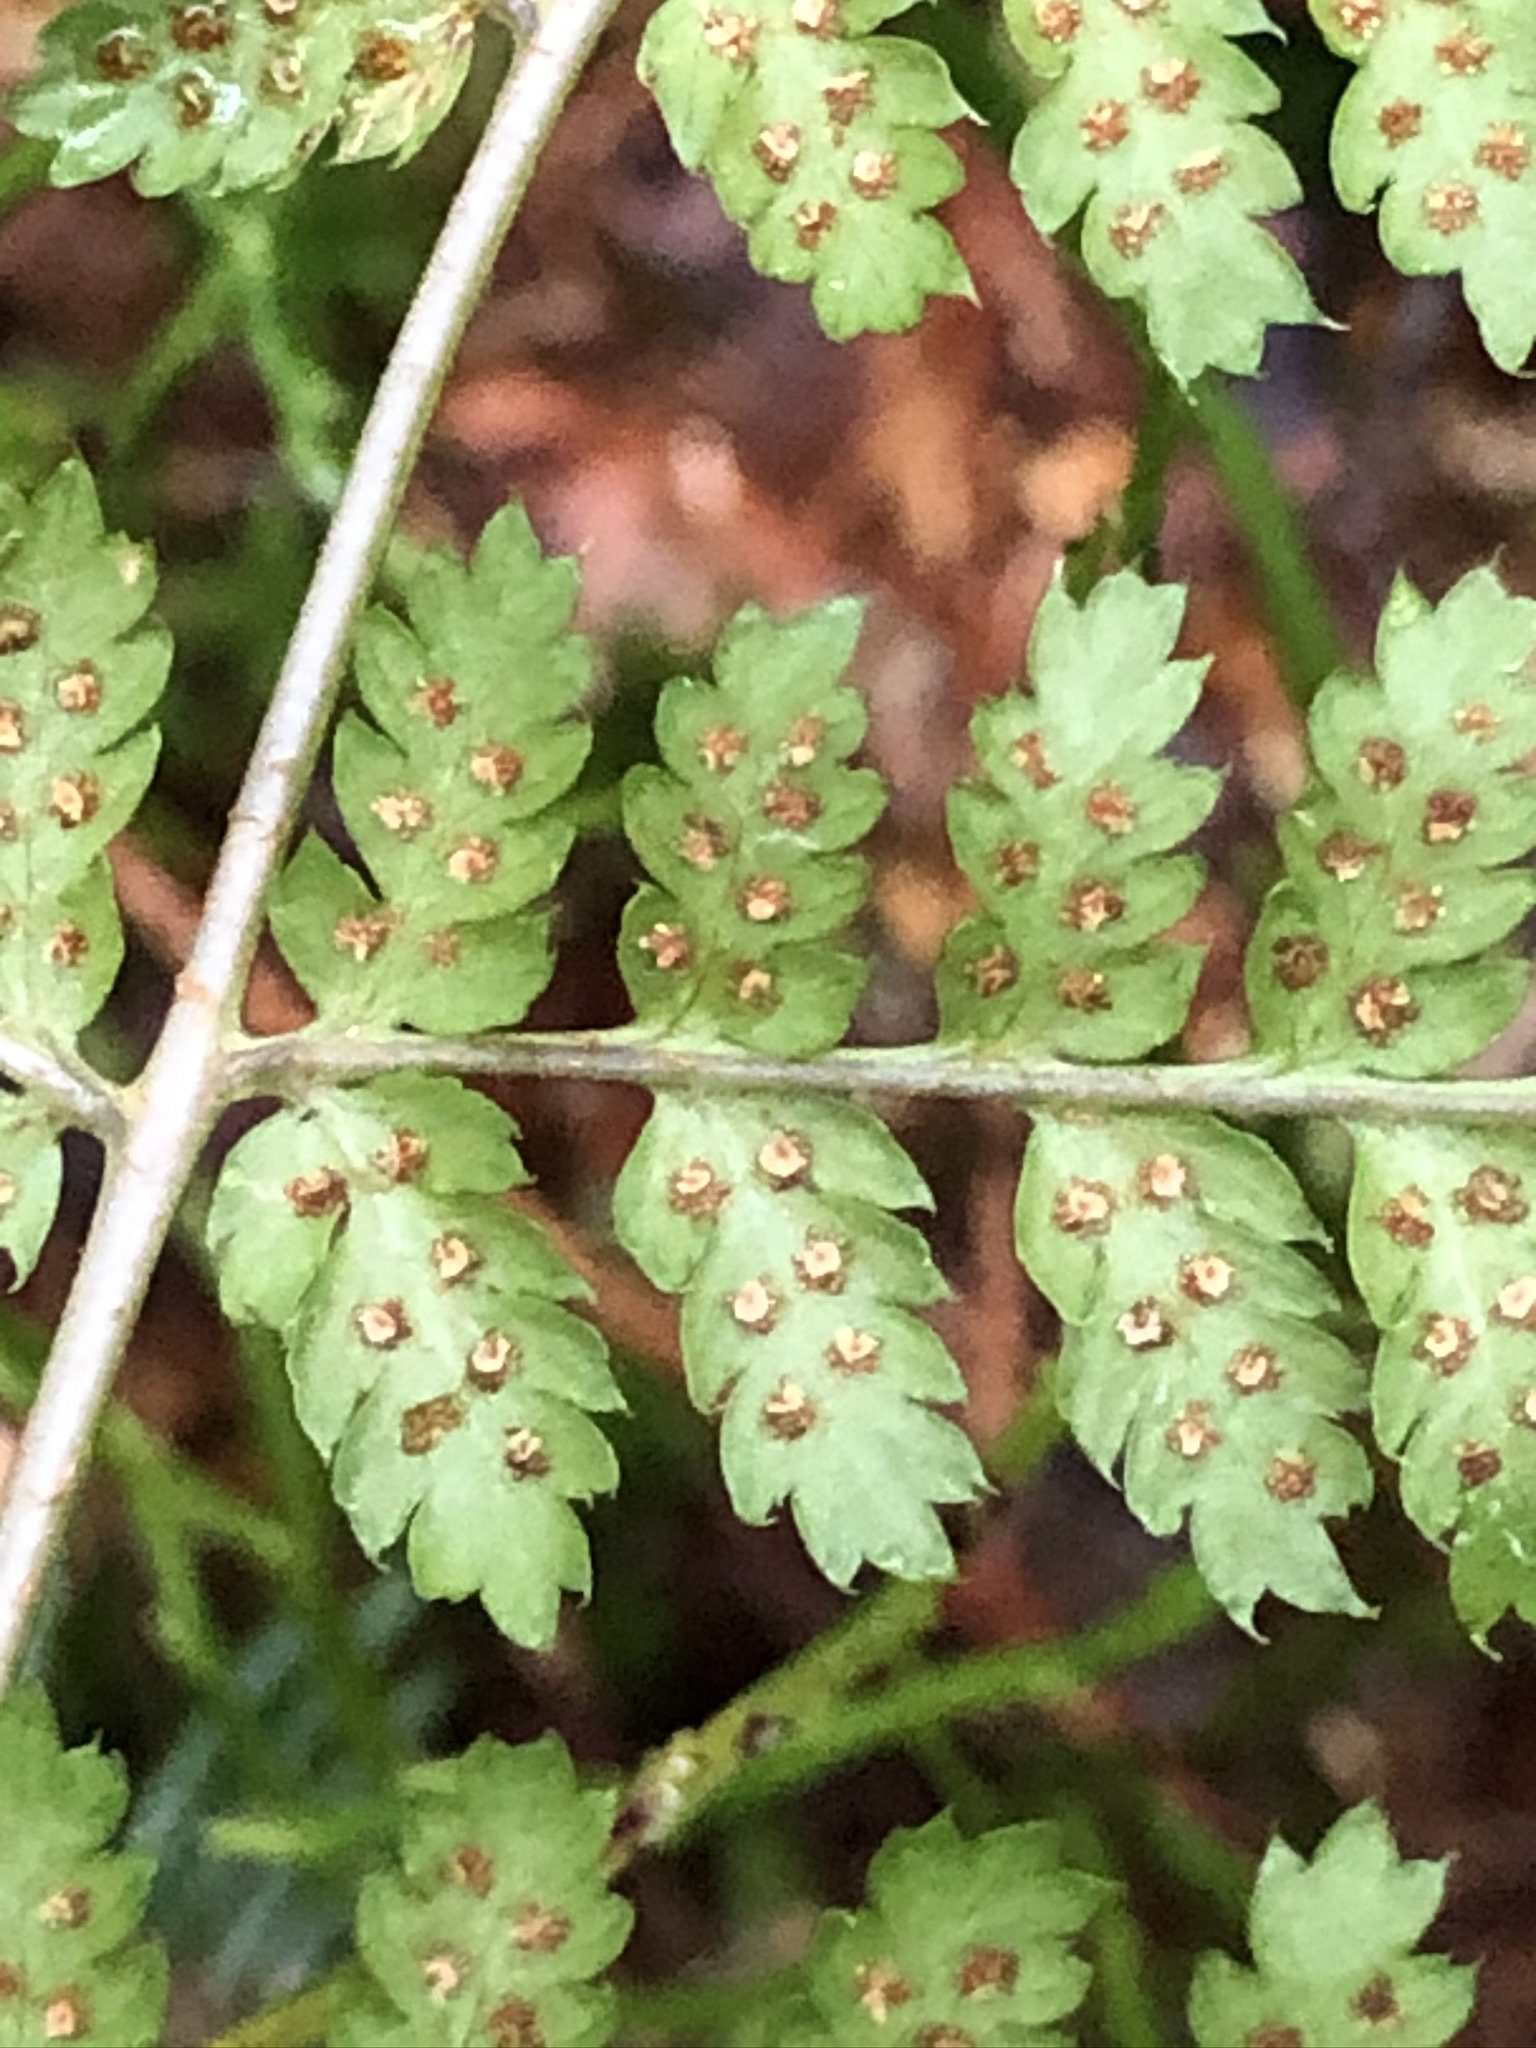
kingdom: Plantae
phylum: Tracheophyta
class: Polypodiopsida
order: Polypodiales
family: Dryopteridaceae
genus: Dryopteris
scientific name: Dryopteris dilatata
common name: Broad buckler-fern
